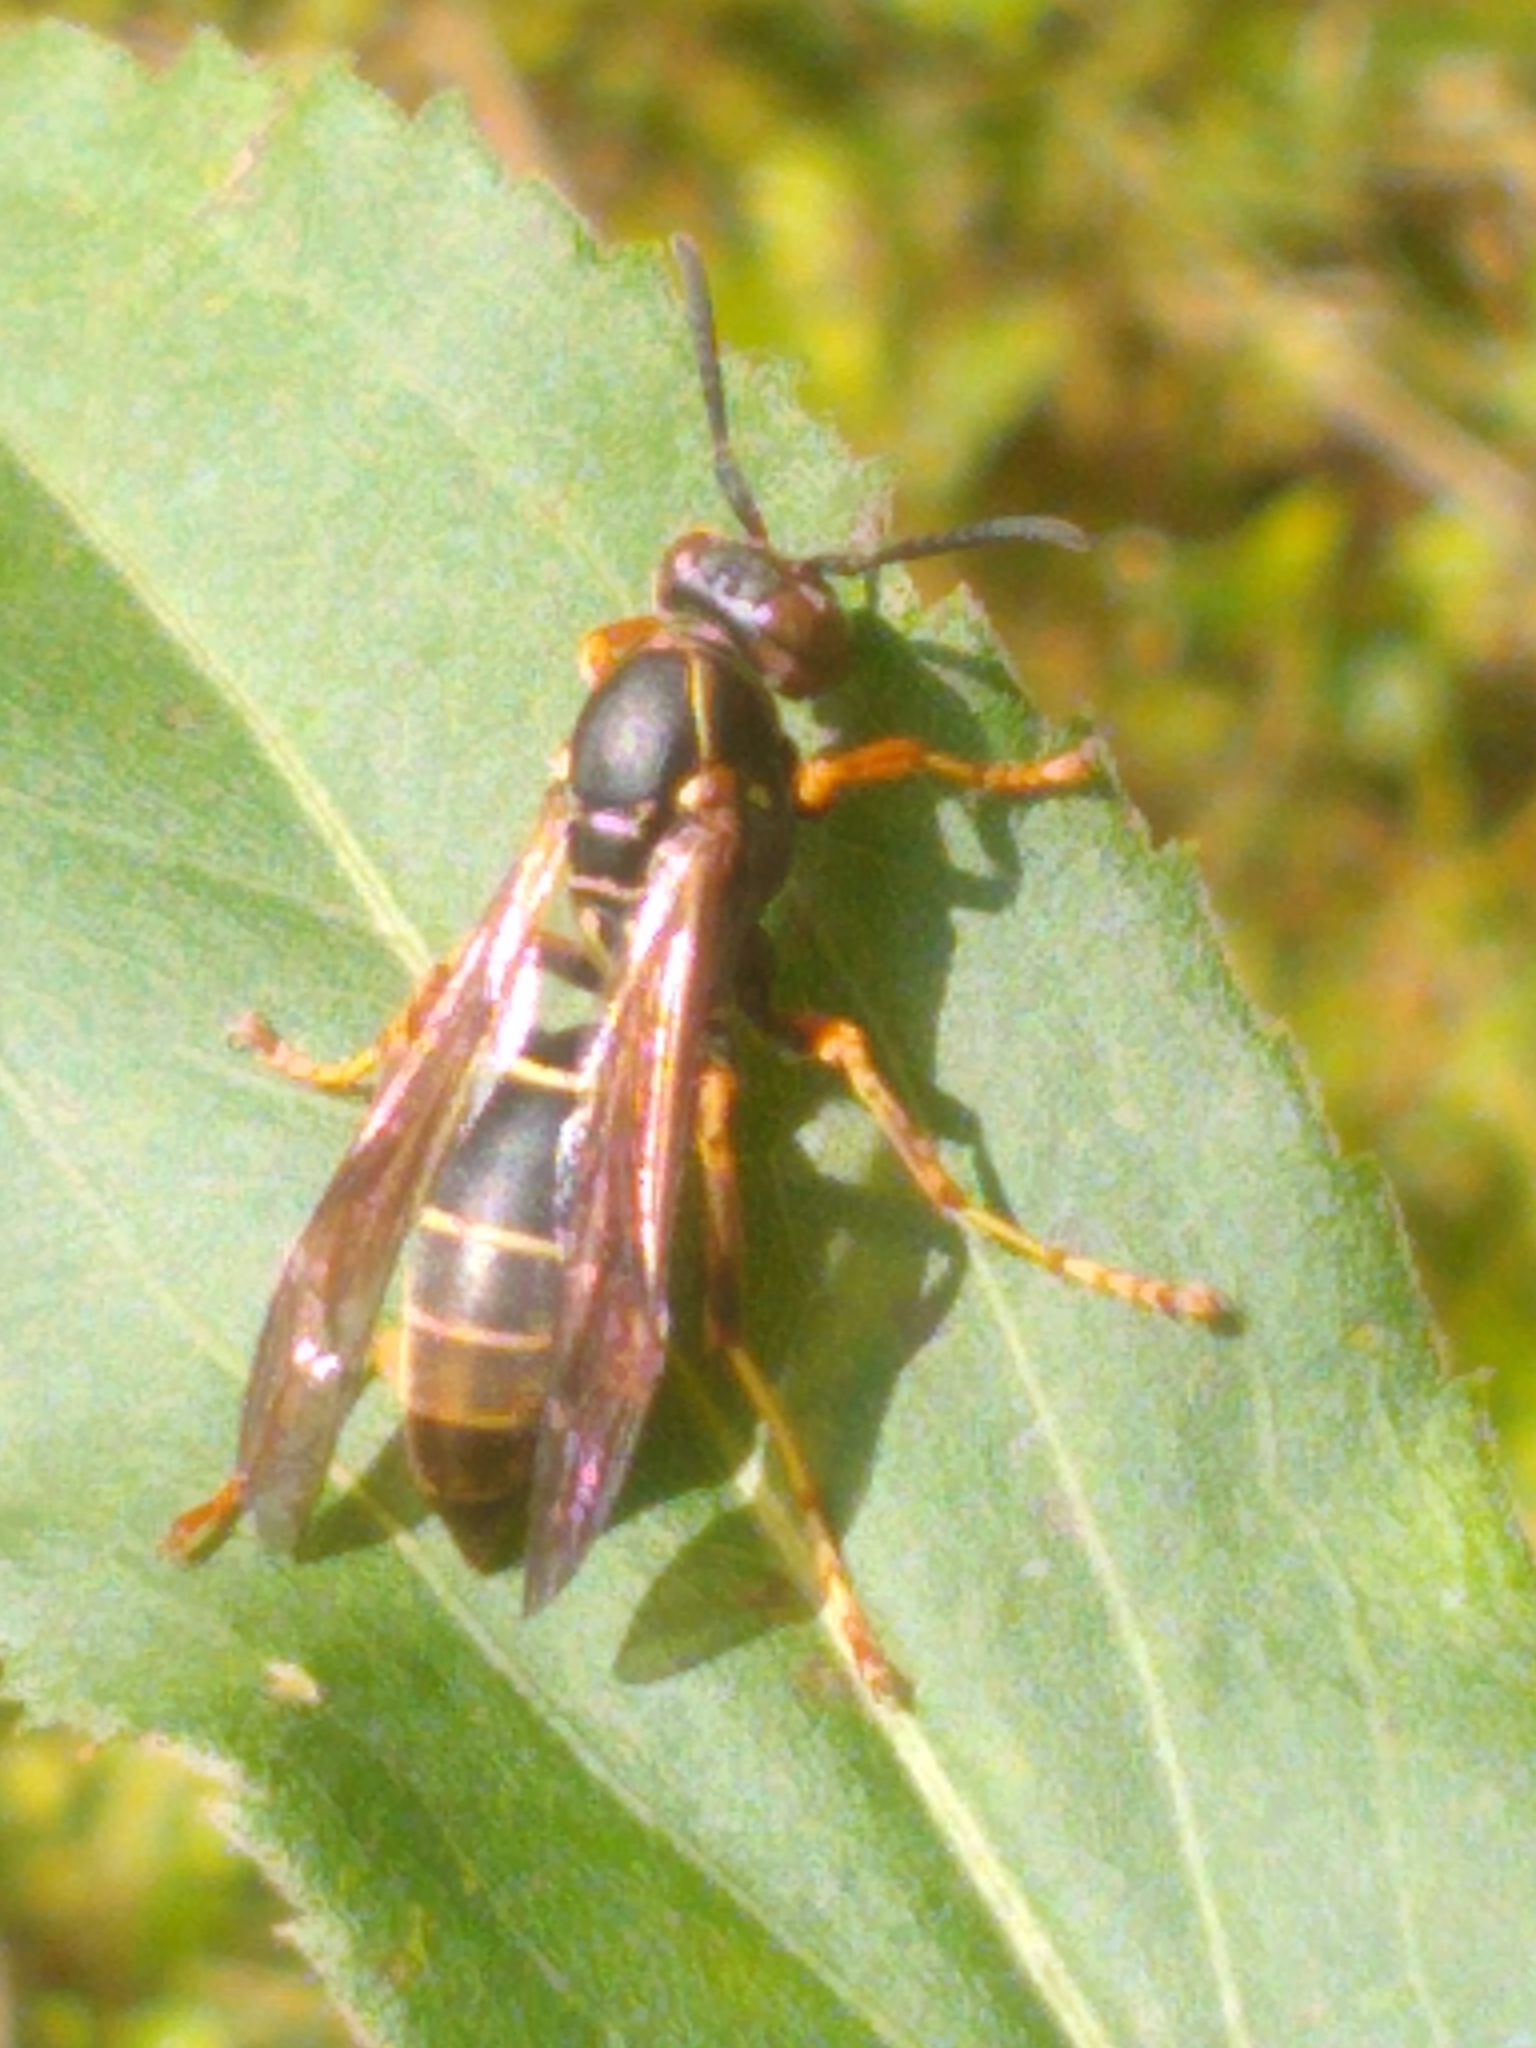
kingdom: Animalia
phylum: Arthropoda
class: Insecta
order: Hymenoptera
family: Eumenidae
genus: Polistes
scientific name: Polistes fuscatus
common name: Dark paper wasp
